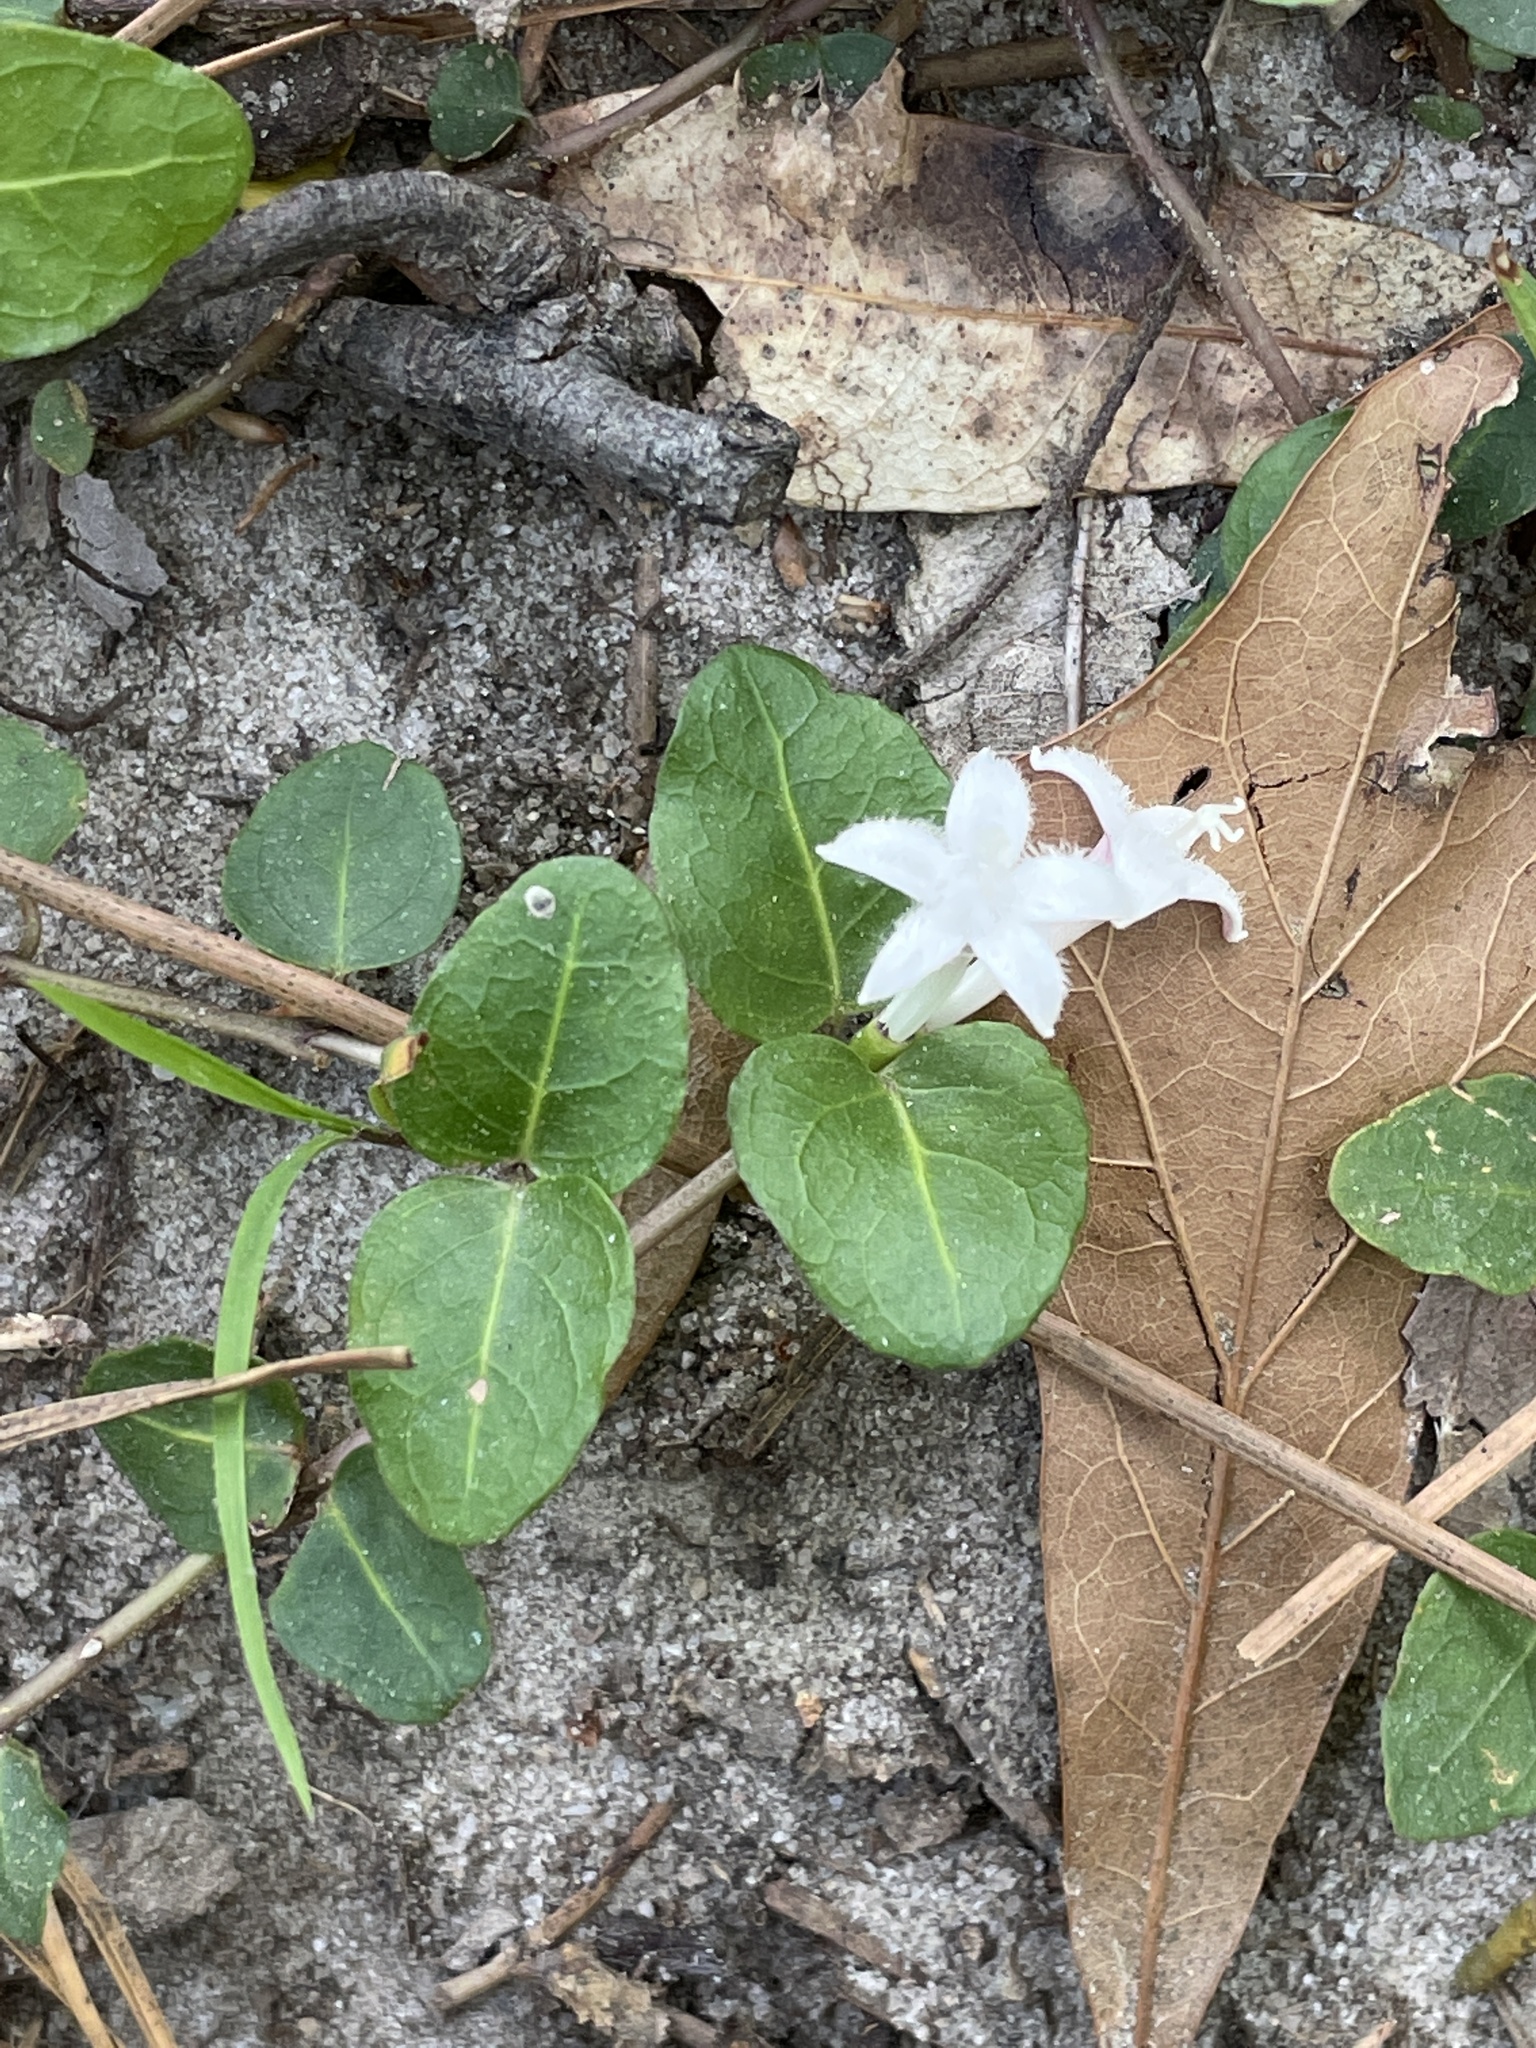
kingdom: Plantae
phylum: Tracheophyta
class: Magnoliopsida
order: Gentianales
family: Rubiaceae
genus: Mitchella
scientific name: Mitchella repens
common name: Partridge-berry
